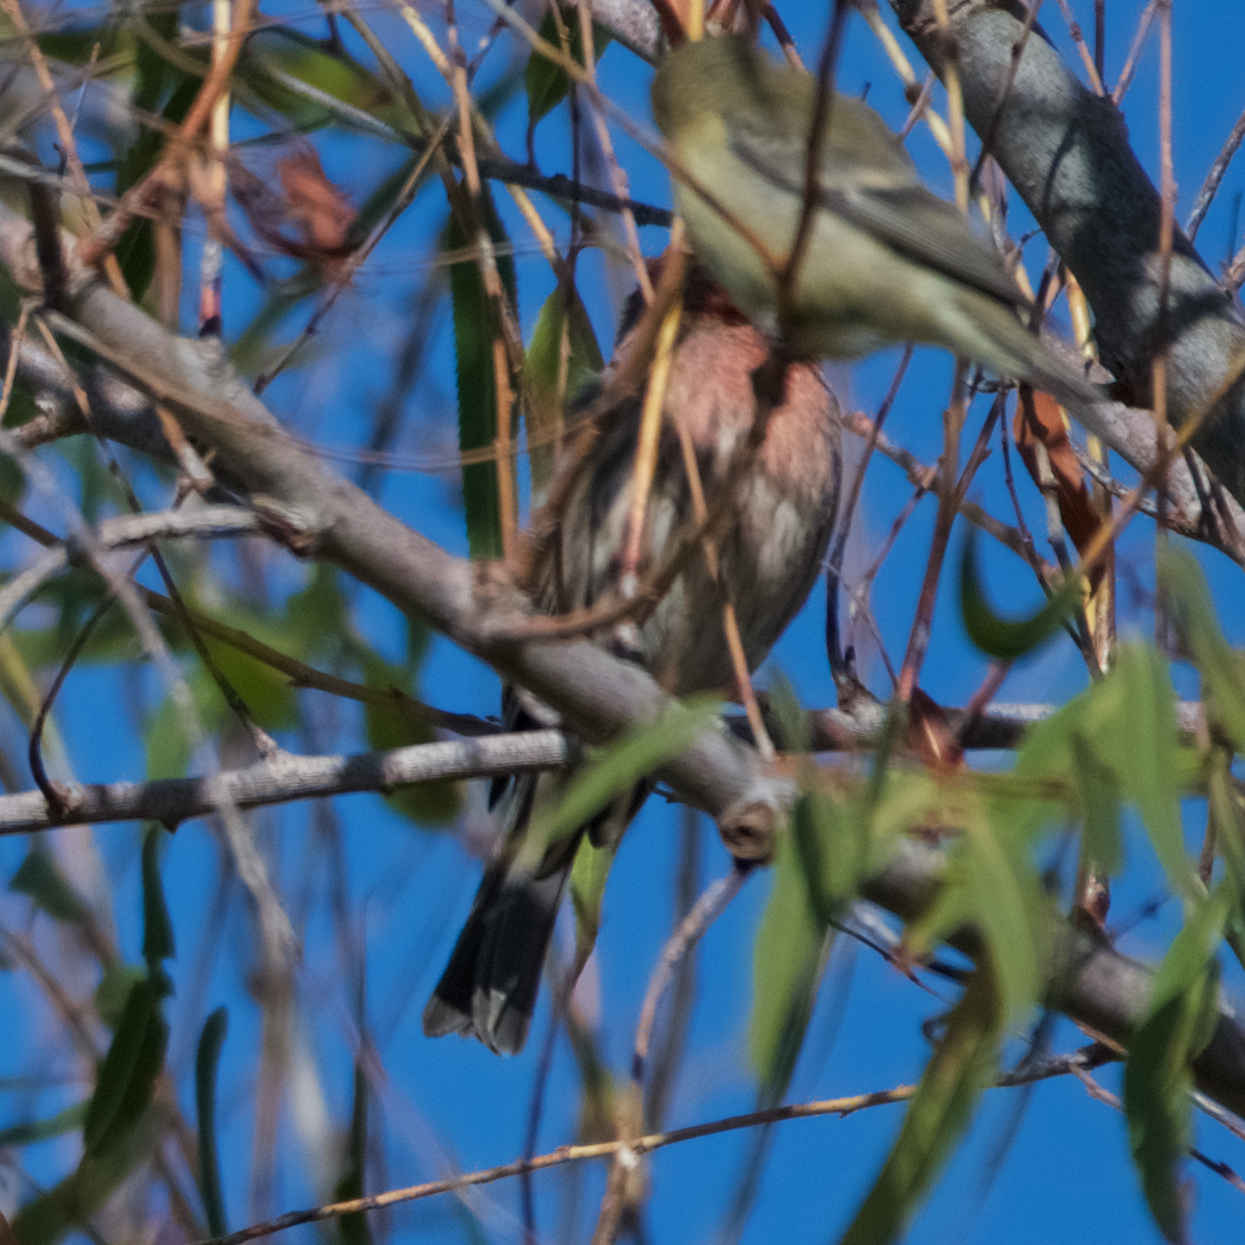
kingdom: Animalia
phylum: Chordata
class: Aves
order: Passeriformes
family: Fringillidae
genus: Haemorhous
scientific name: Haemorhous mexicanus
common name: House finch
